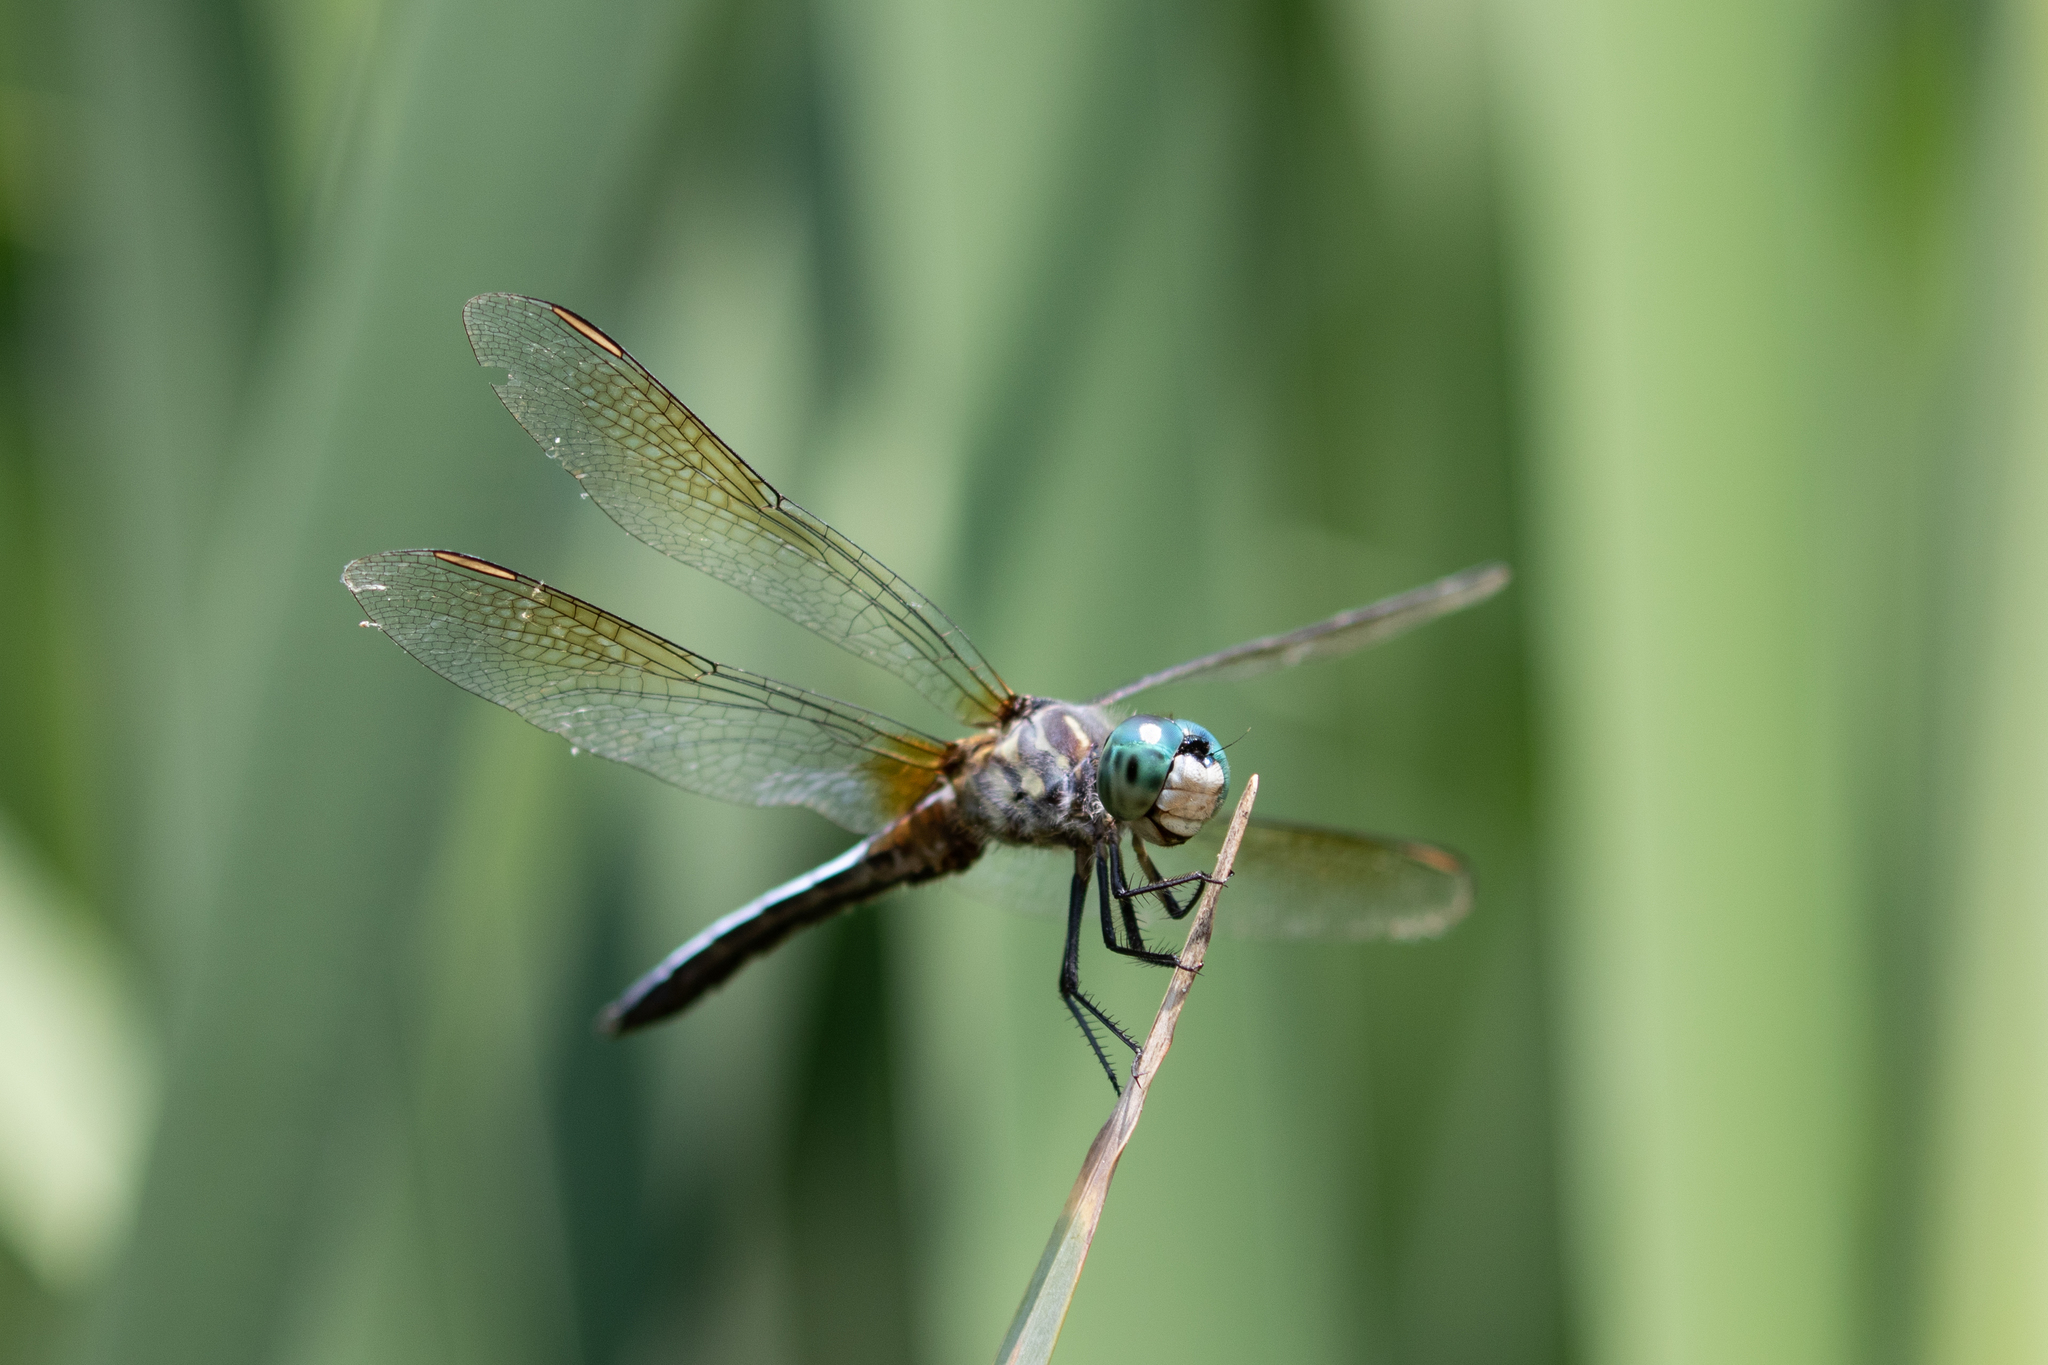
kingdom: Animalia
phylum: Arthropoda
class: Insecta
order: Odonata
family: Libellulidae
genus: Pachydiplax
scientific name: Pachydiplax longipennis
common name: Blue dasher
